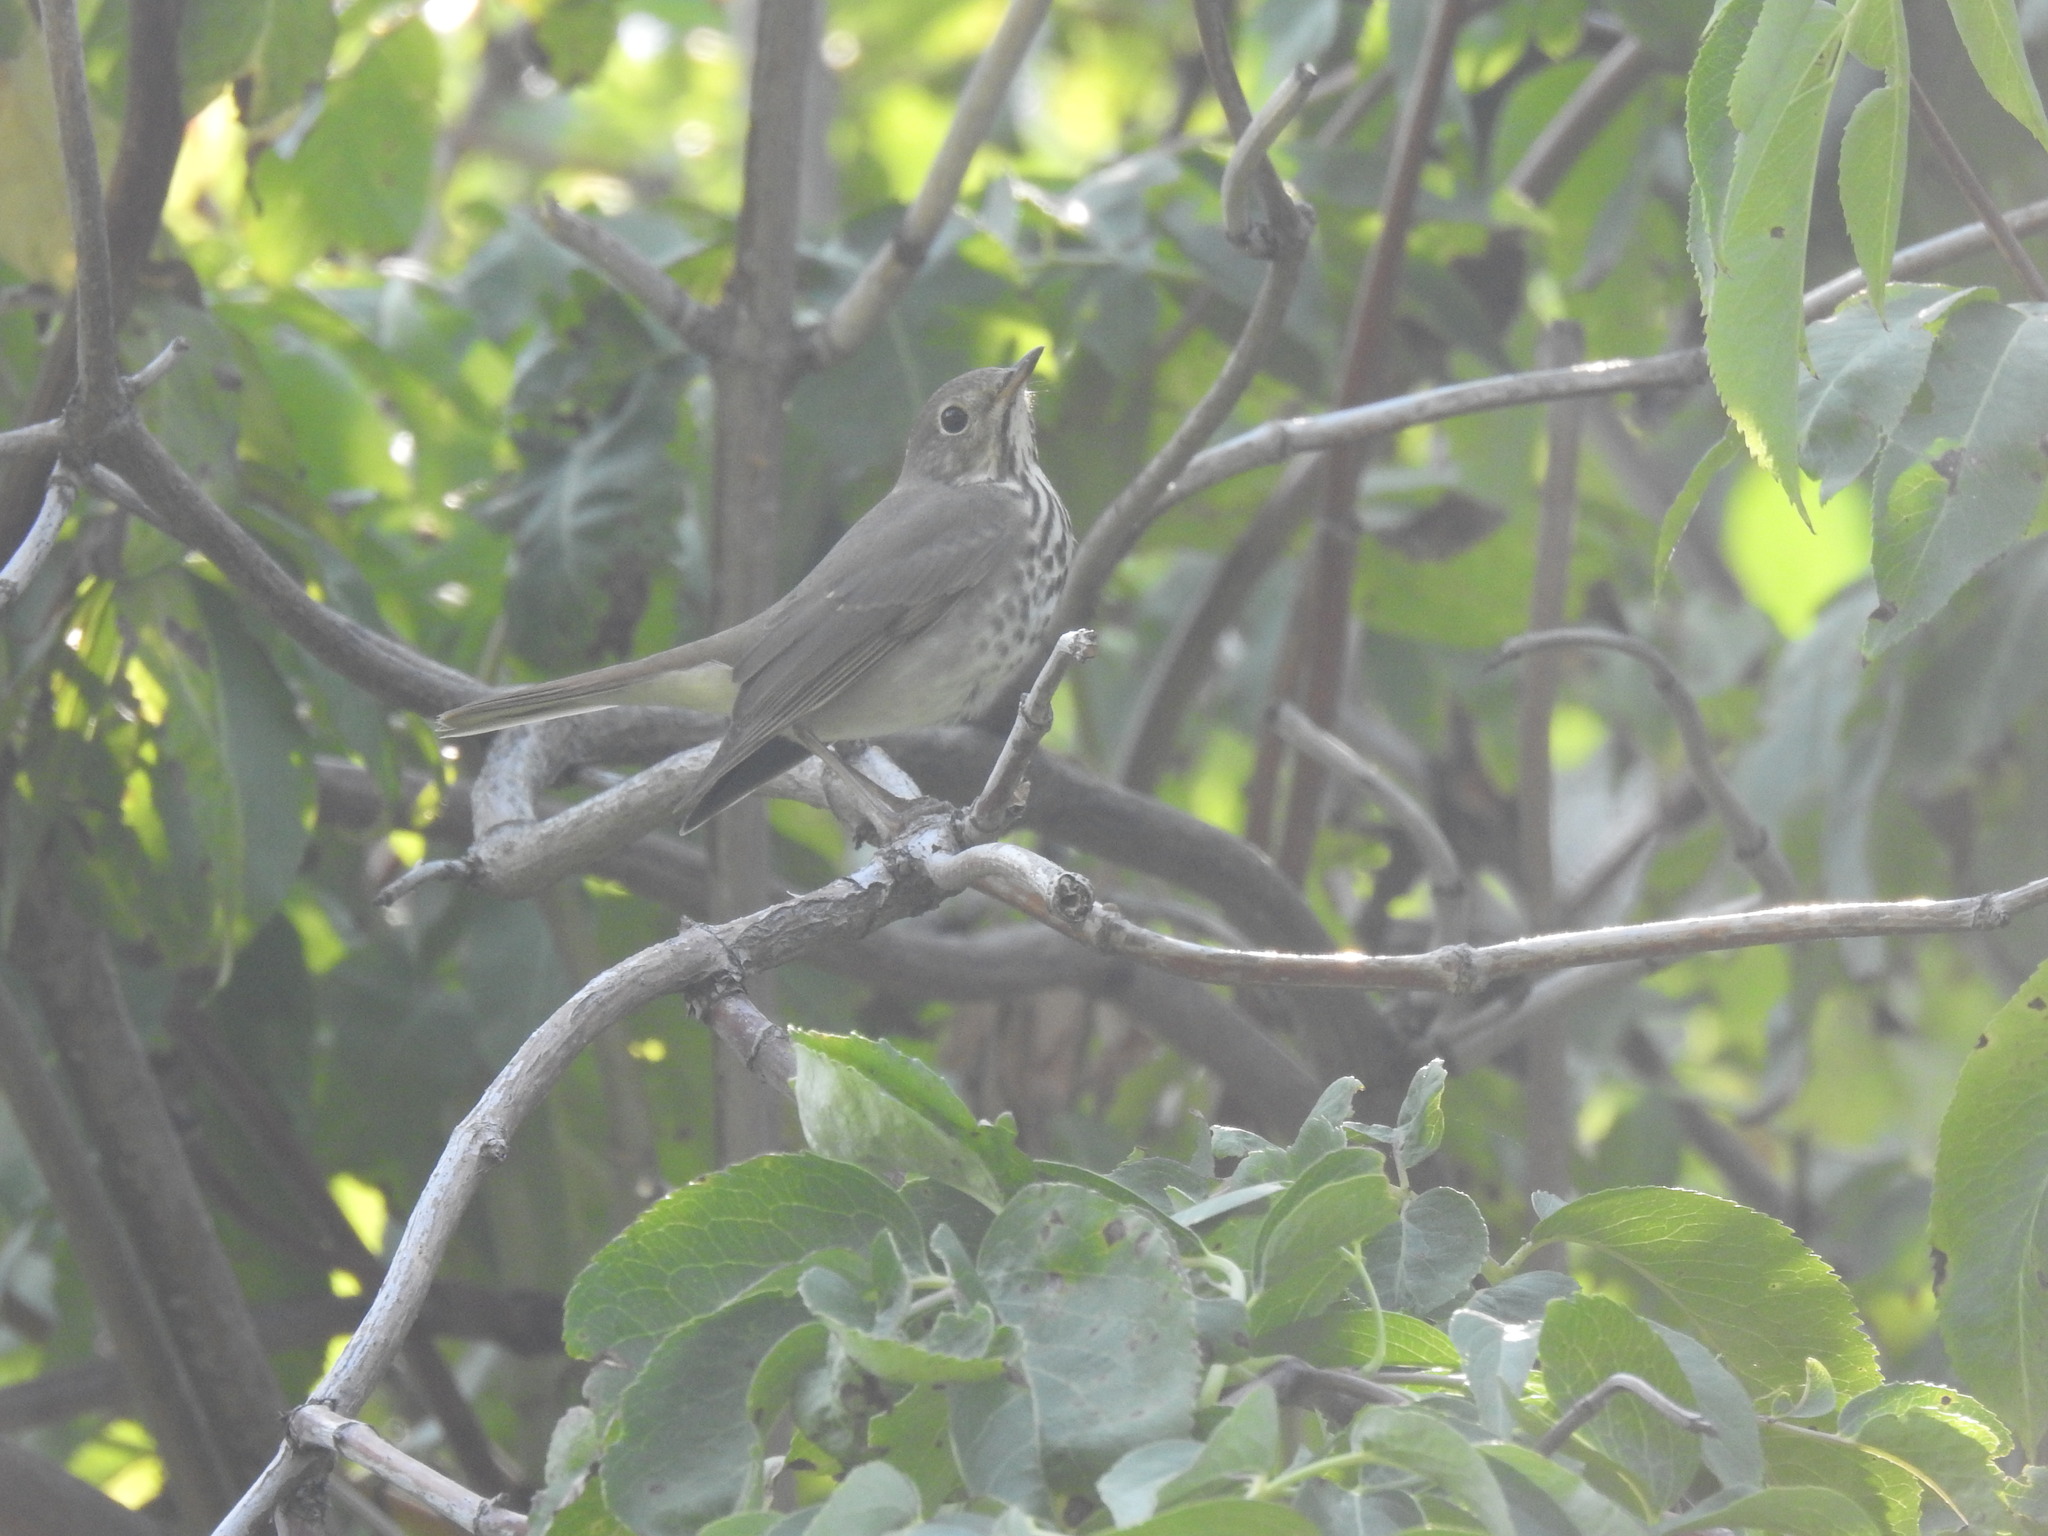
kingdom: Animalia
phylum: Chordata
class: Aves
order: Passeriformes
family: Turdidae
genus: Catharus
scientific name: Catharus guttatus
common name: Hermit thrush
